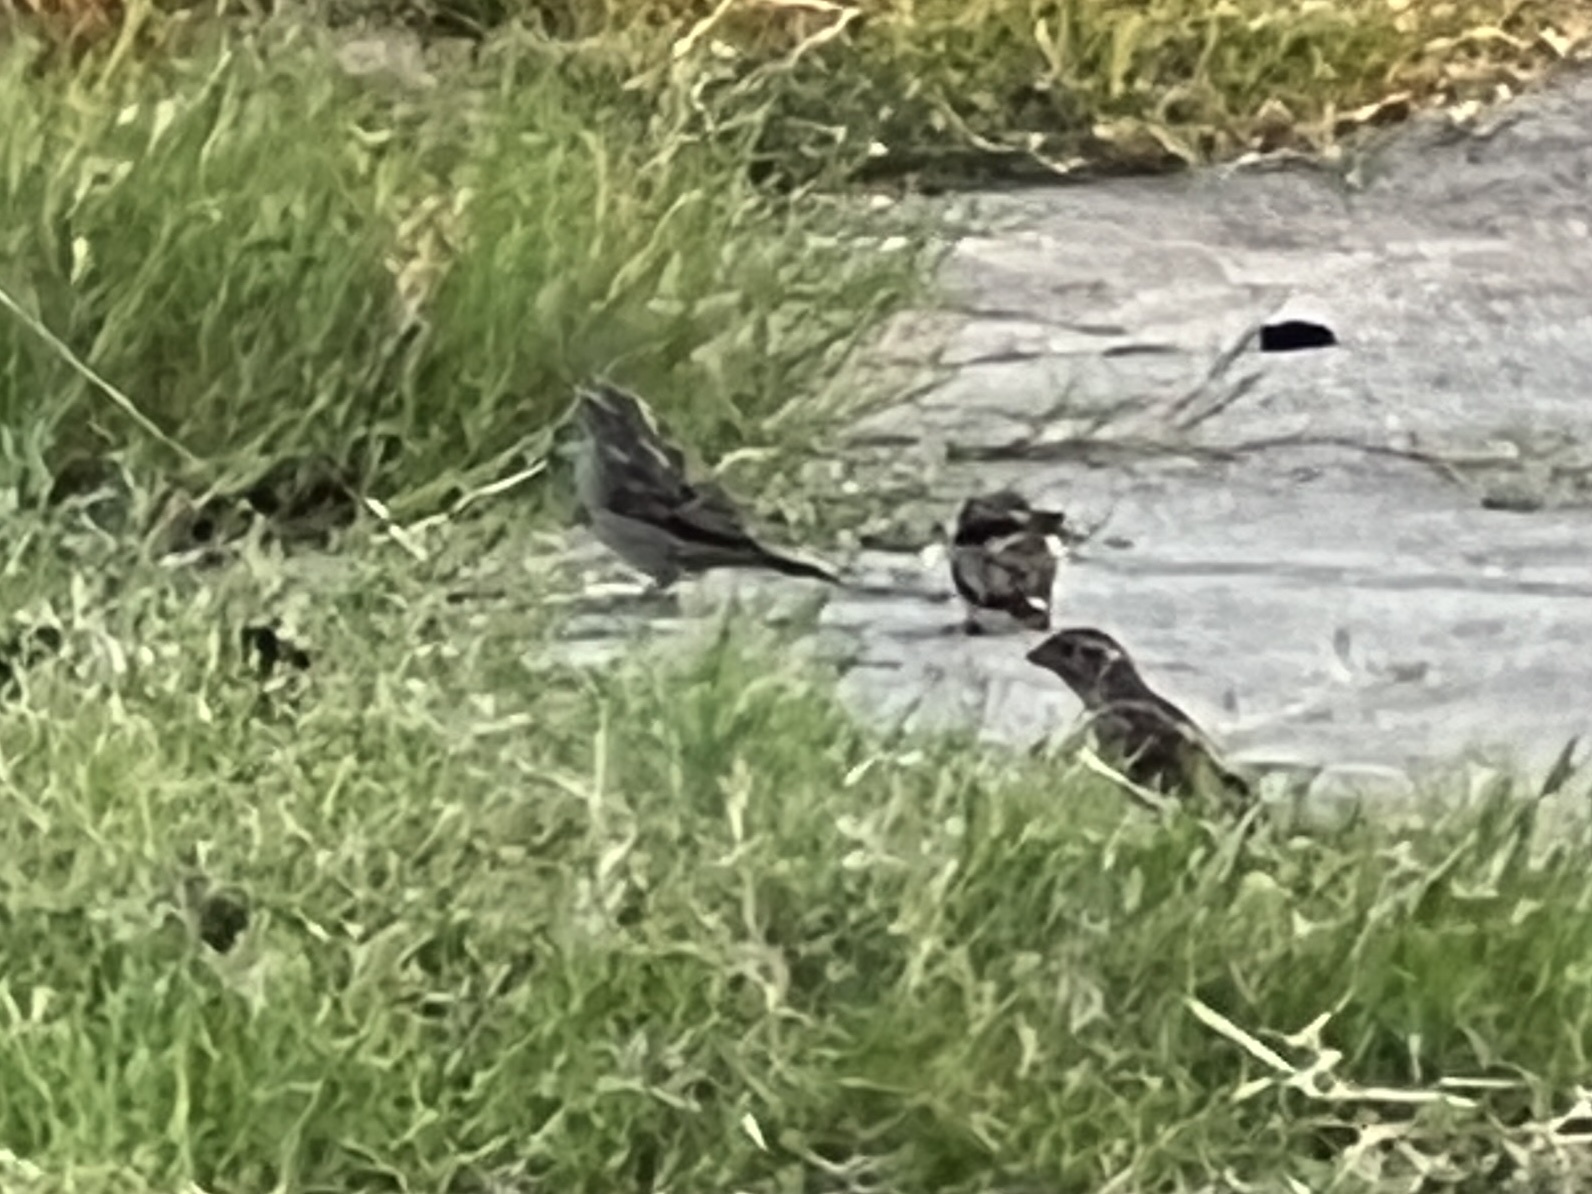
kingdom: Animalia
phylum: Chordata
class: Aves
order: Passeriformes
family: Passeridae
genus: Passer
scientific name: Passer domesticus
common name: House sparrow
